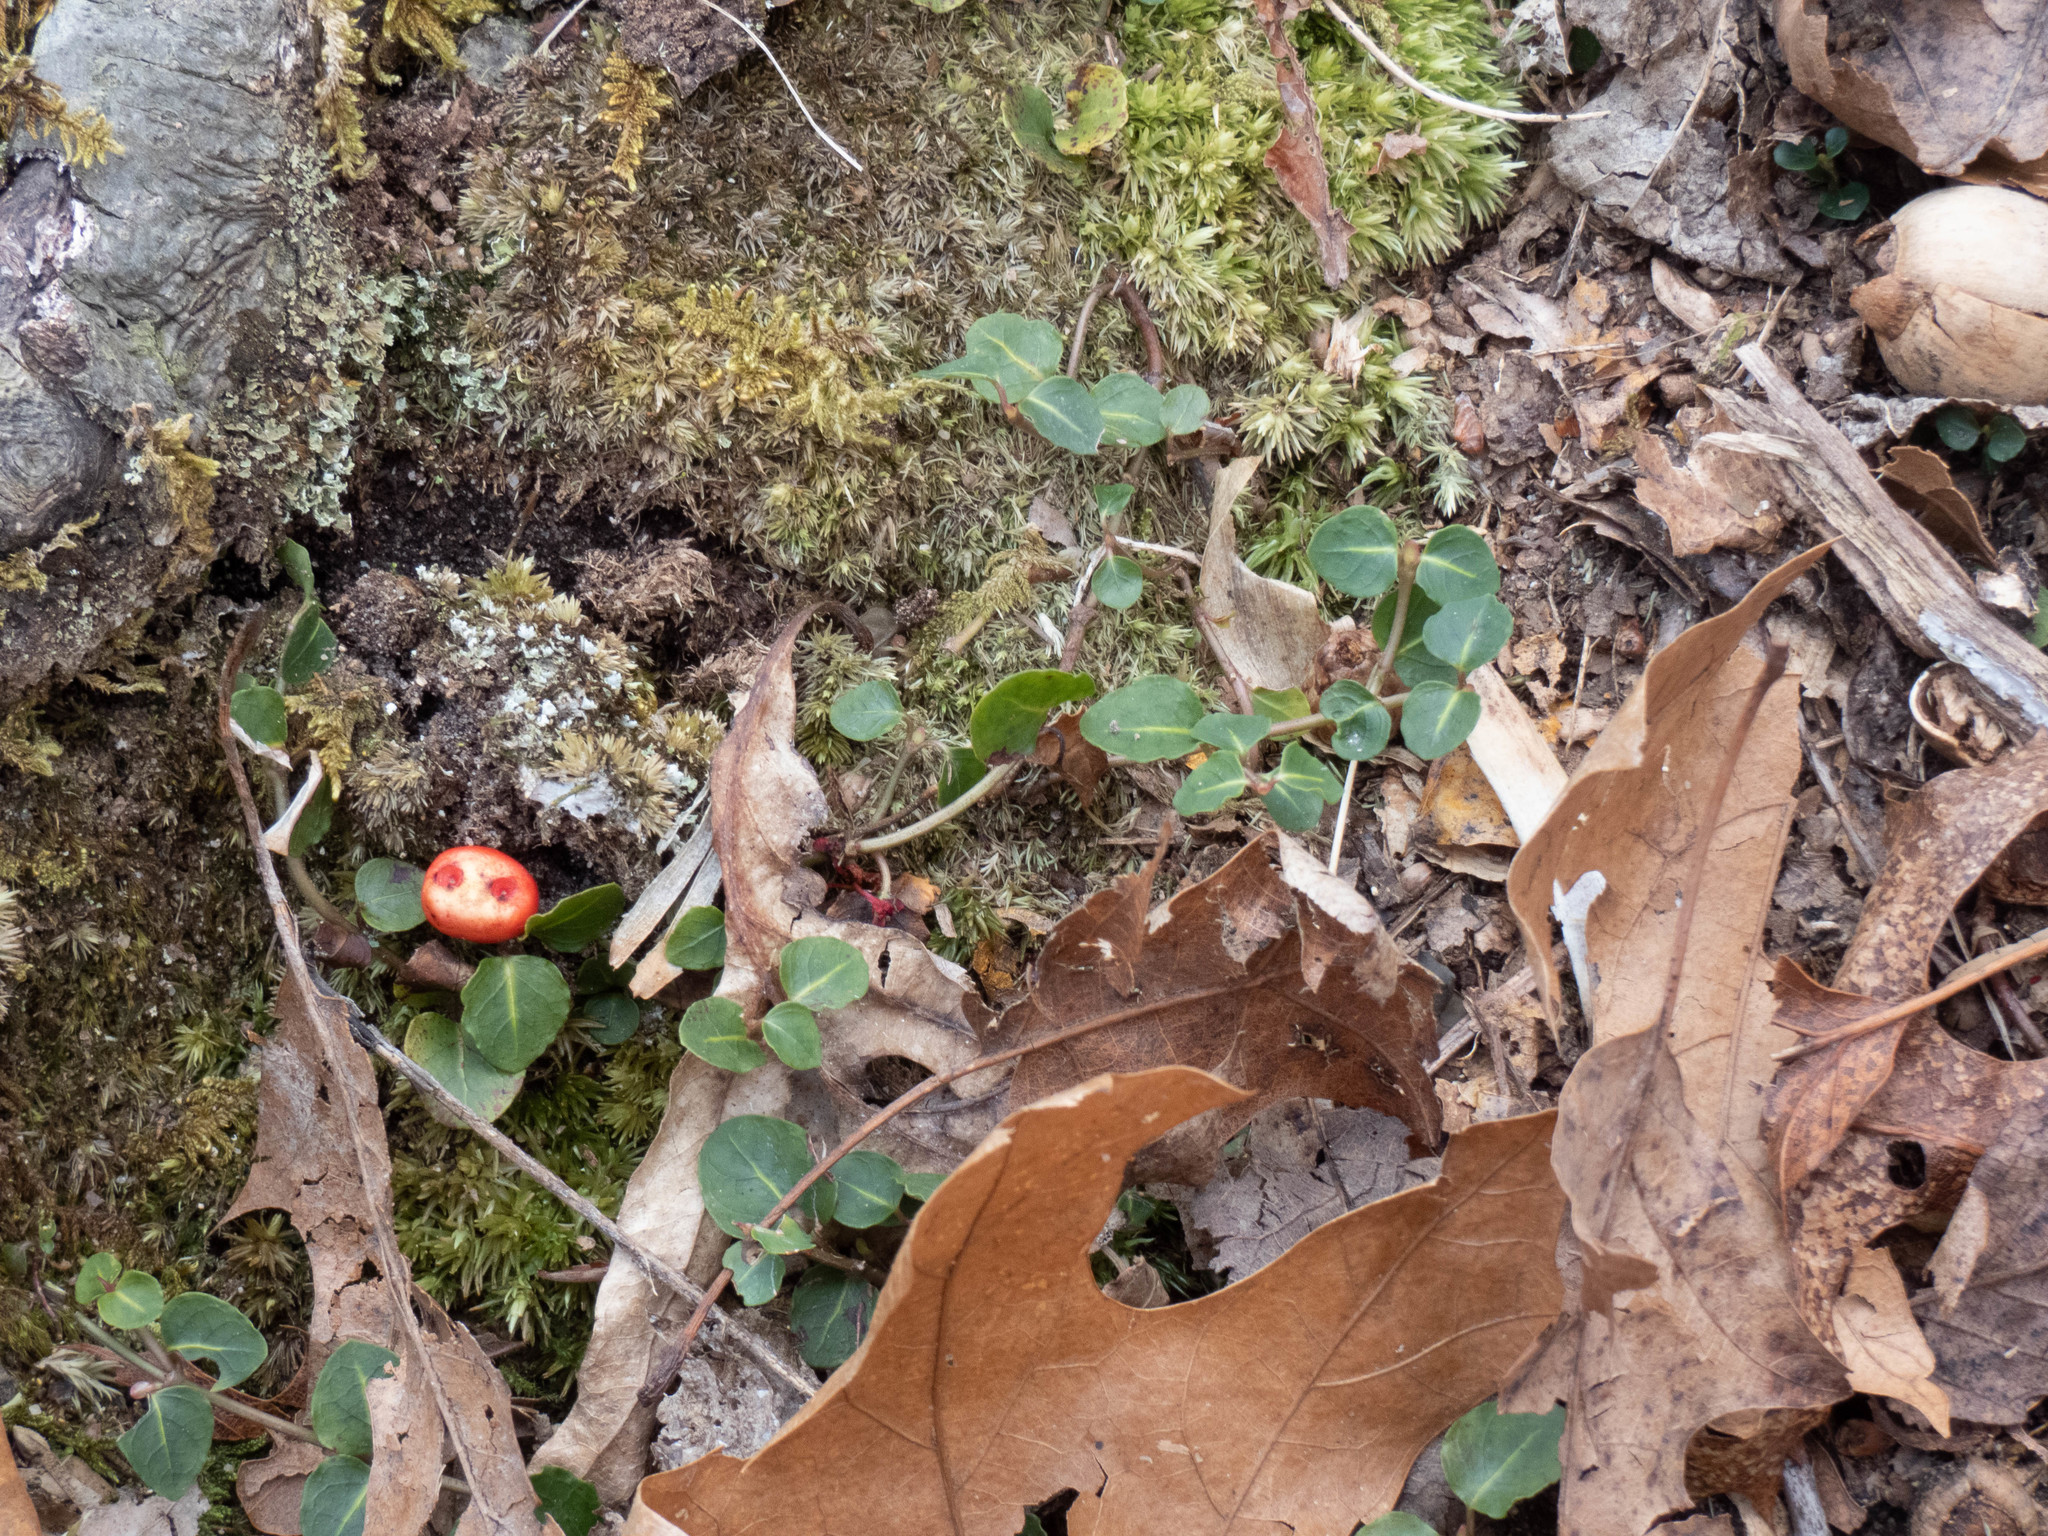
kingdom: Plantae
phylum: Tracheophyta
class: Magnoliopsida
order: Gentianales
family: Rubiaceae
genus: Mitchella
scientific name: Mitchella repens
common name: Partridge-berry
